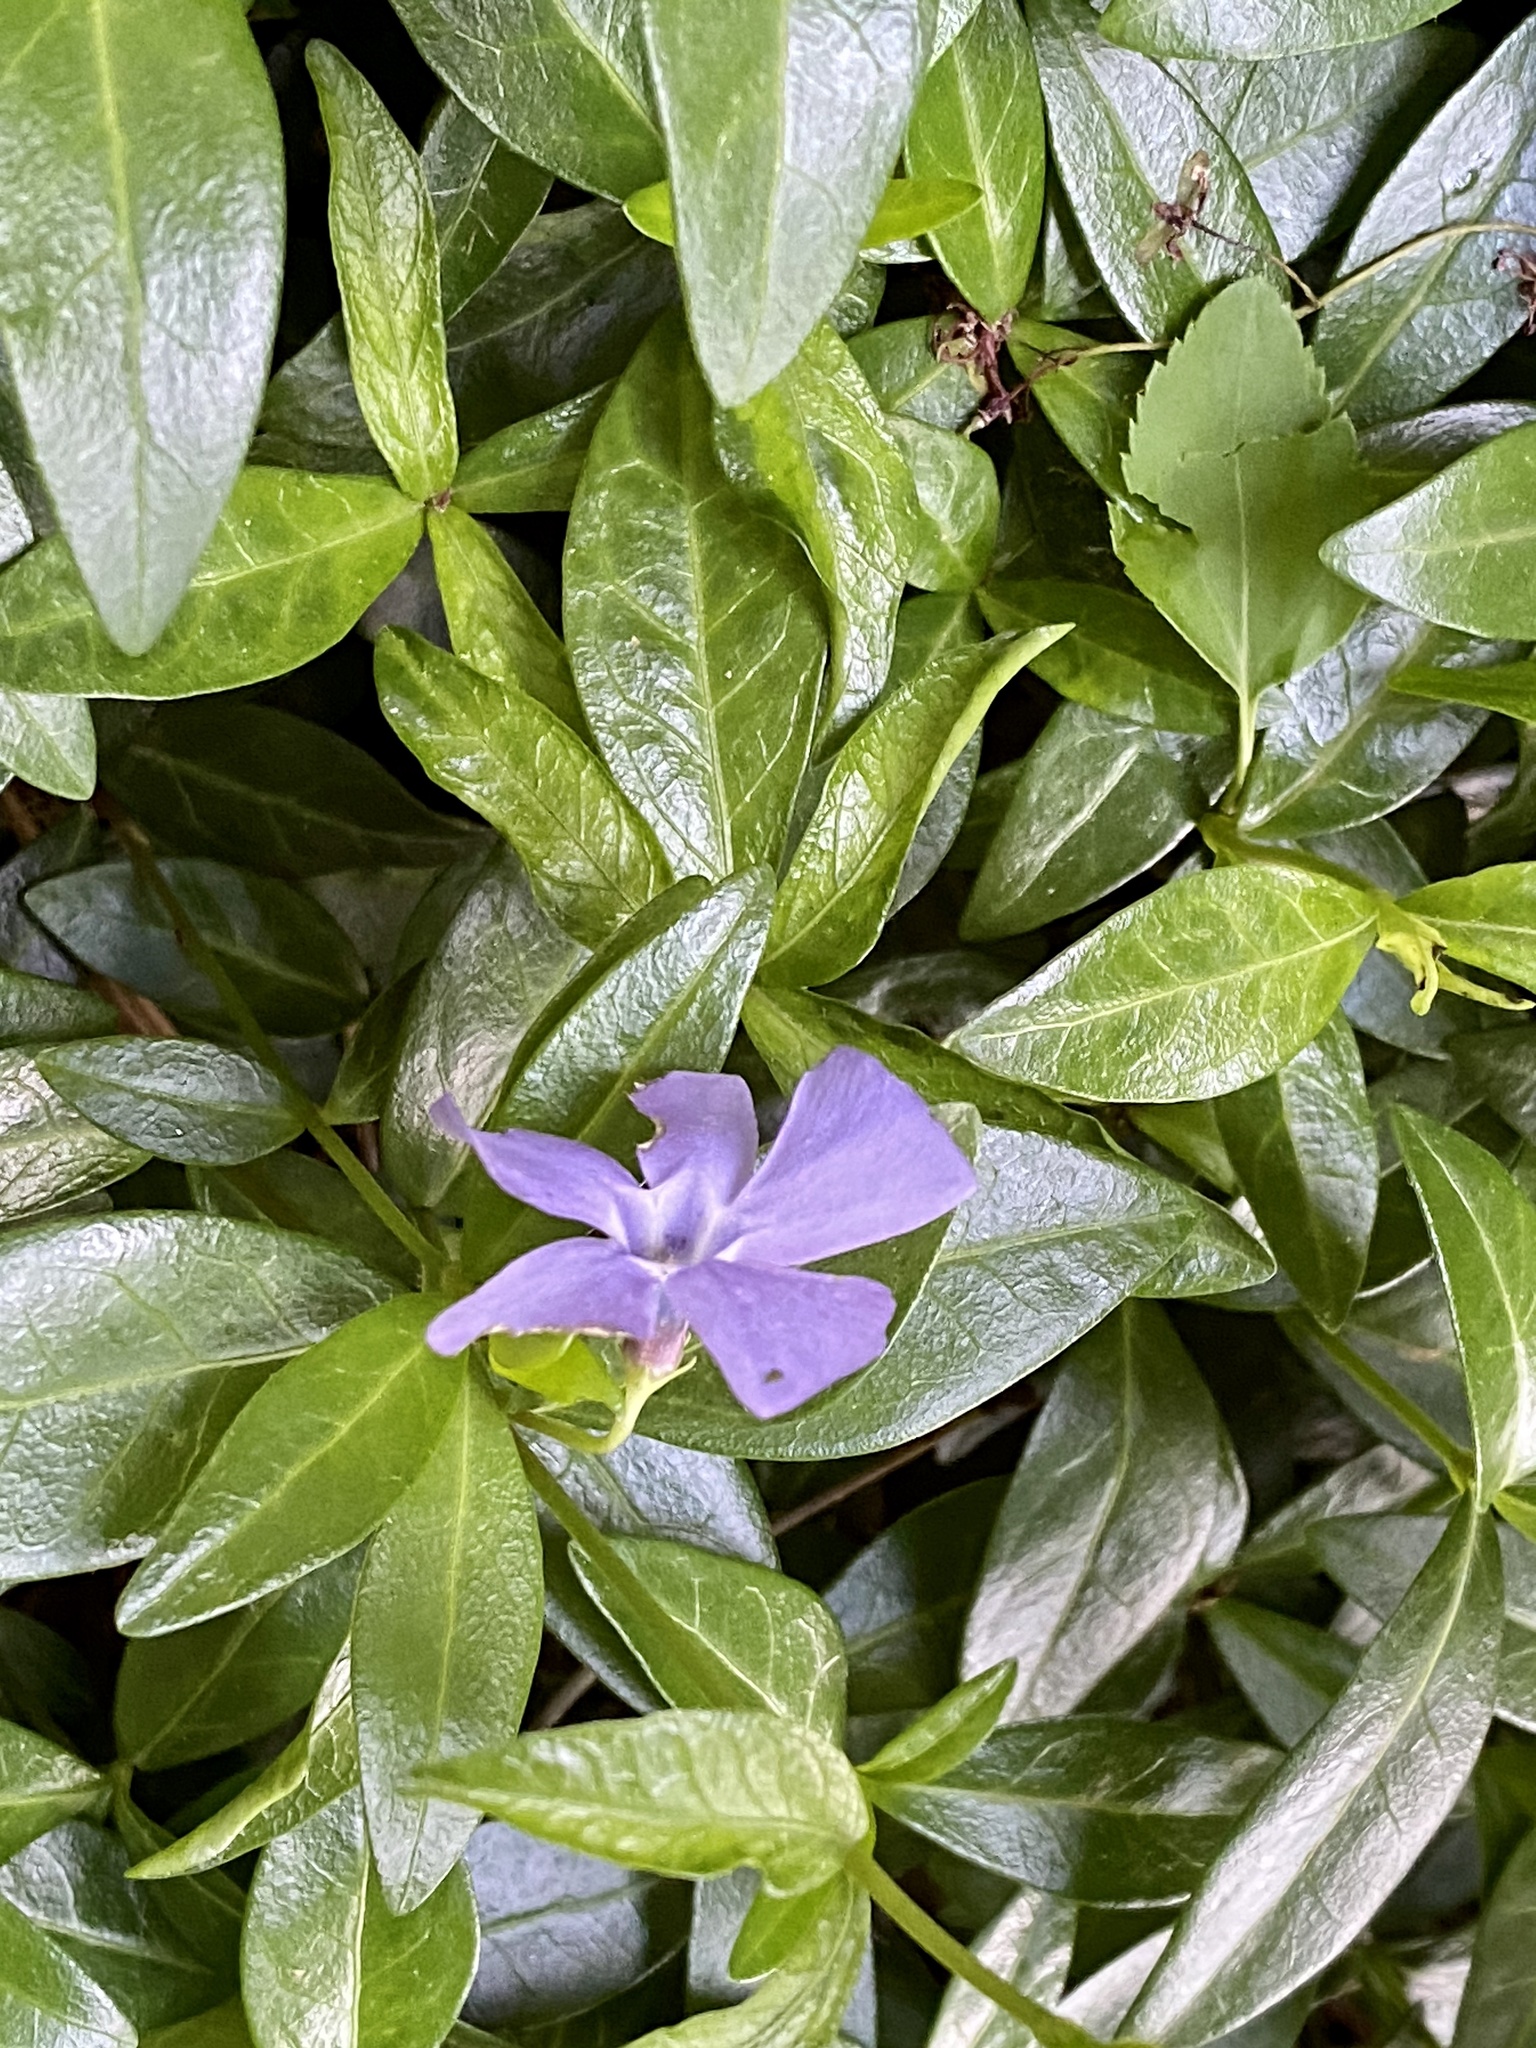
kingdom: Plantae
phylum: Tracheophyta
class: Magnoliopsida
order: Gentianales
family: Apocynaceae
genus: Vinca
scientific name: Vinca minor
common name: Lesser periwinkle
